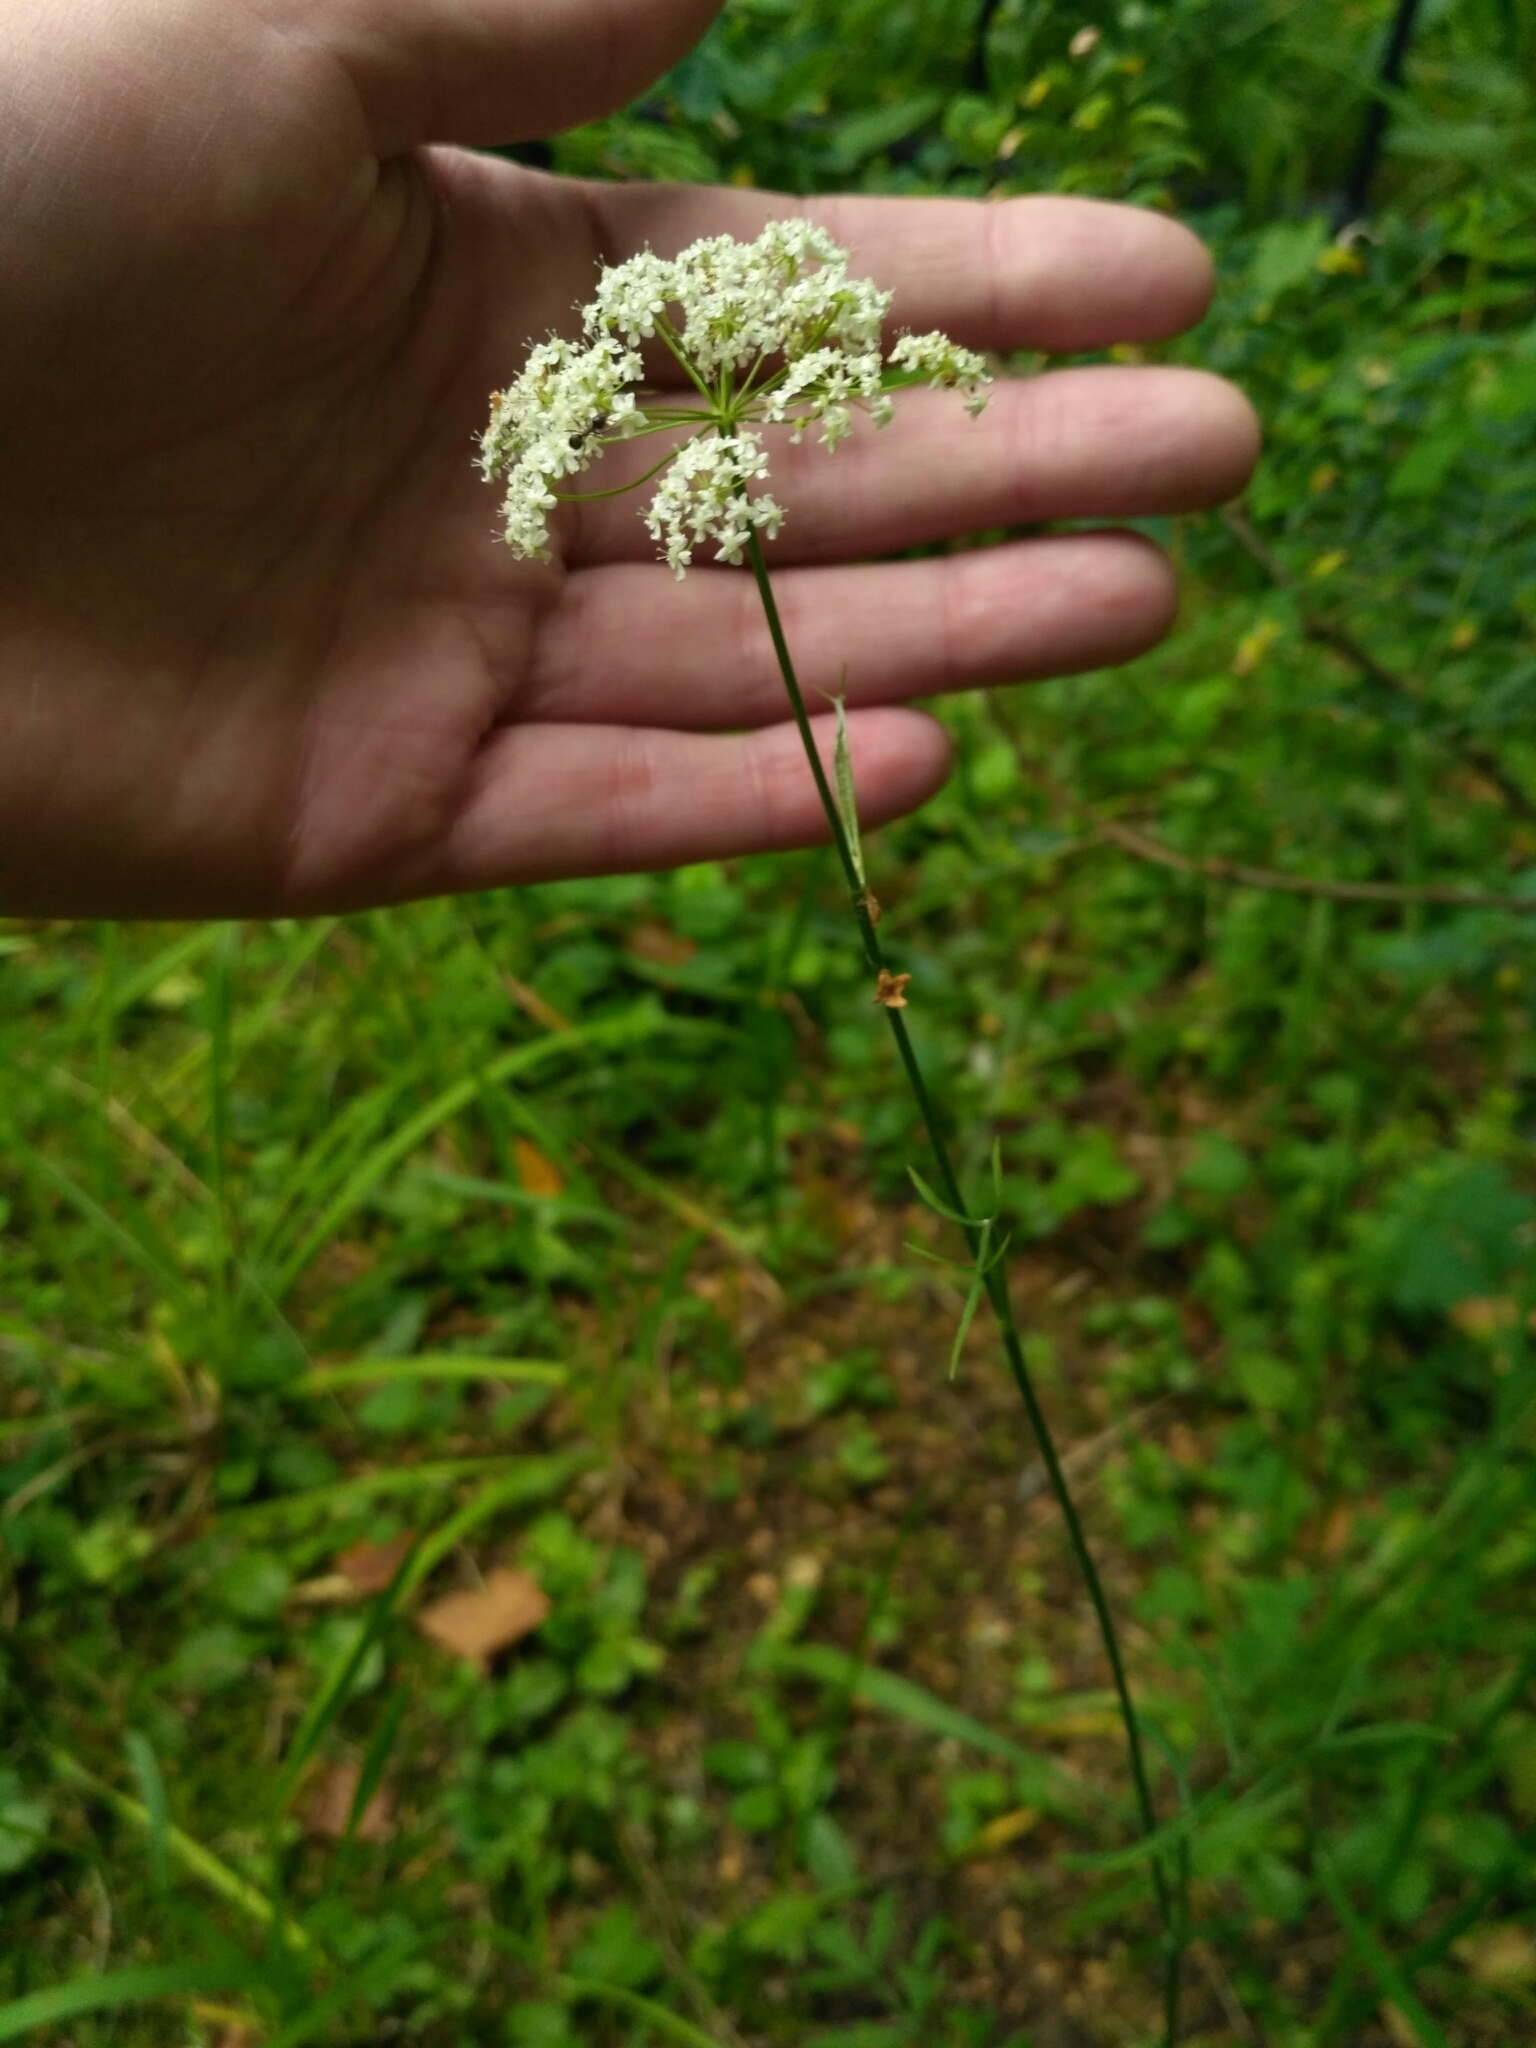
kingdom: Plantae
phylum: Tracheophyta
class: Magnoliopsida
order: Apiales
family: Apiaceae
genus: Pimpinella
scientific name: Pimpinella saxifraga
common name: Burnet-saxifrage
